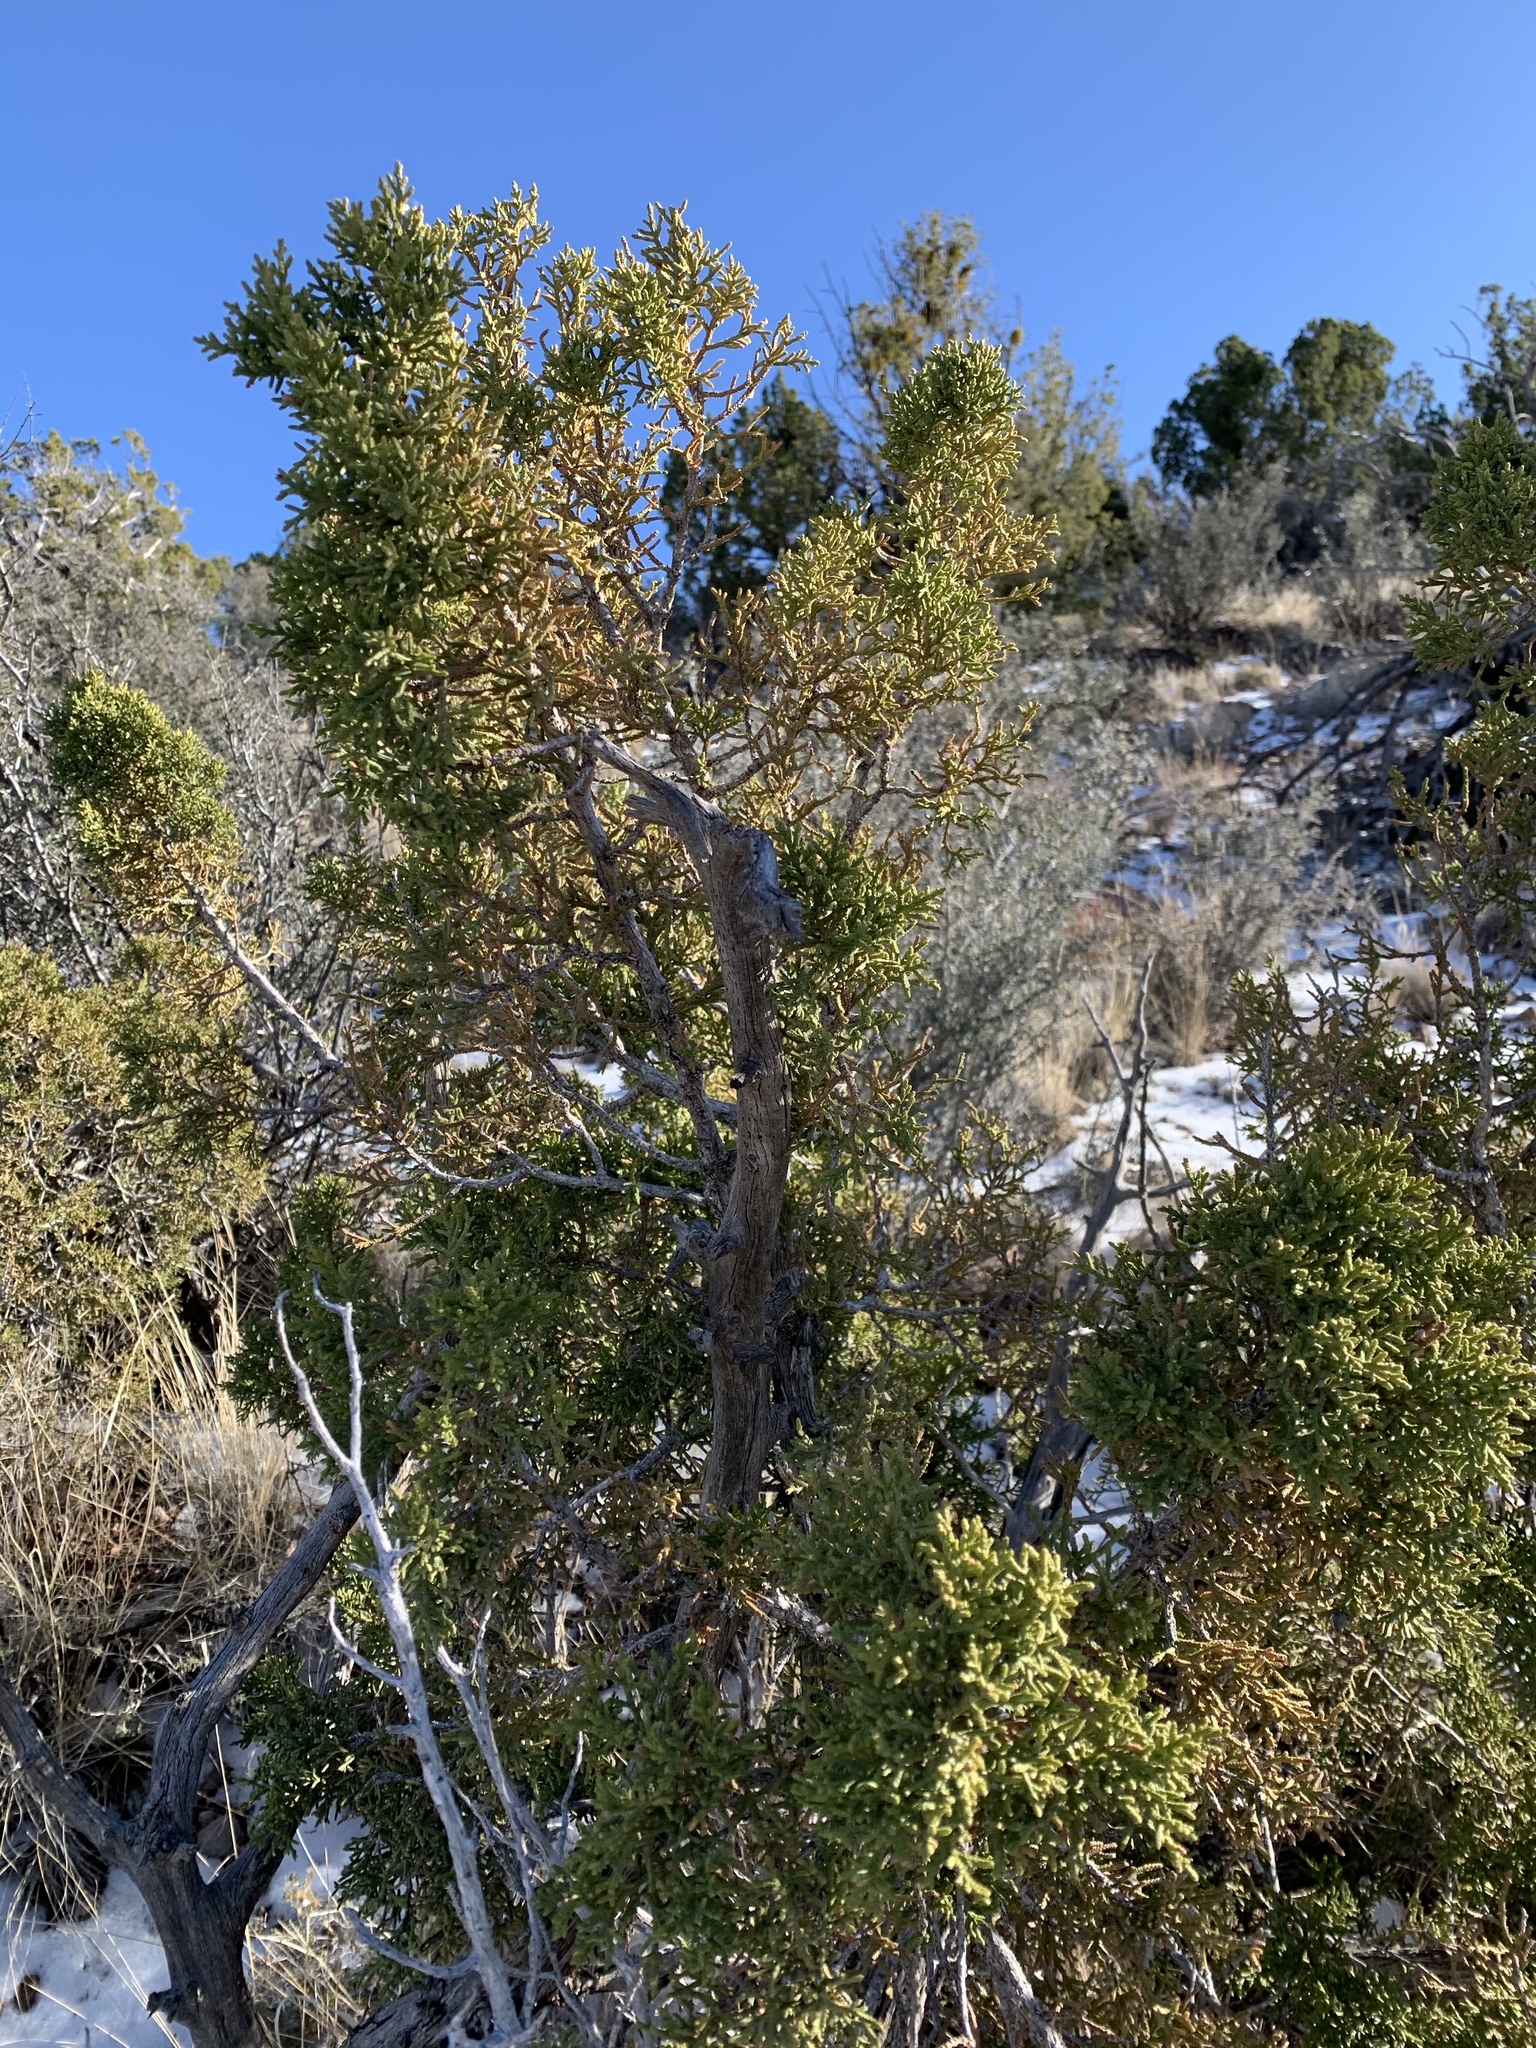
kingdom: Plantae
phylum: Tracheophyta
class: Pinopsida
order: Pinales
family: Cupressaceae
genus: Juniperus
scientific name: Juniperus monosperma
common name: One-seed juniper
